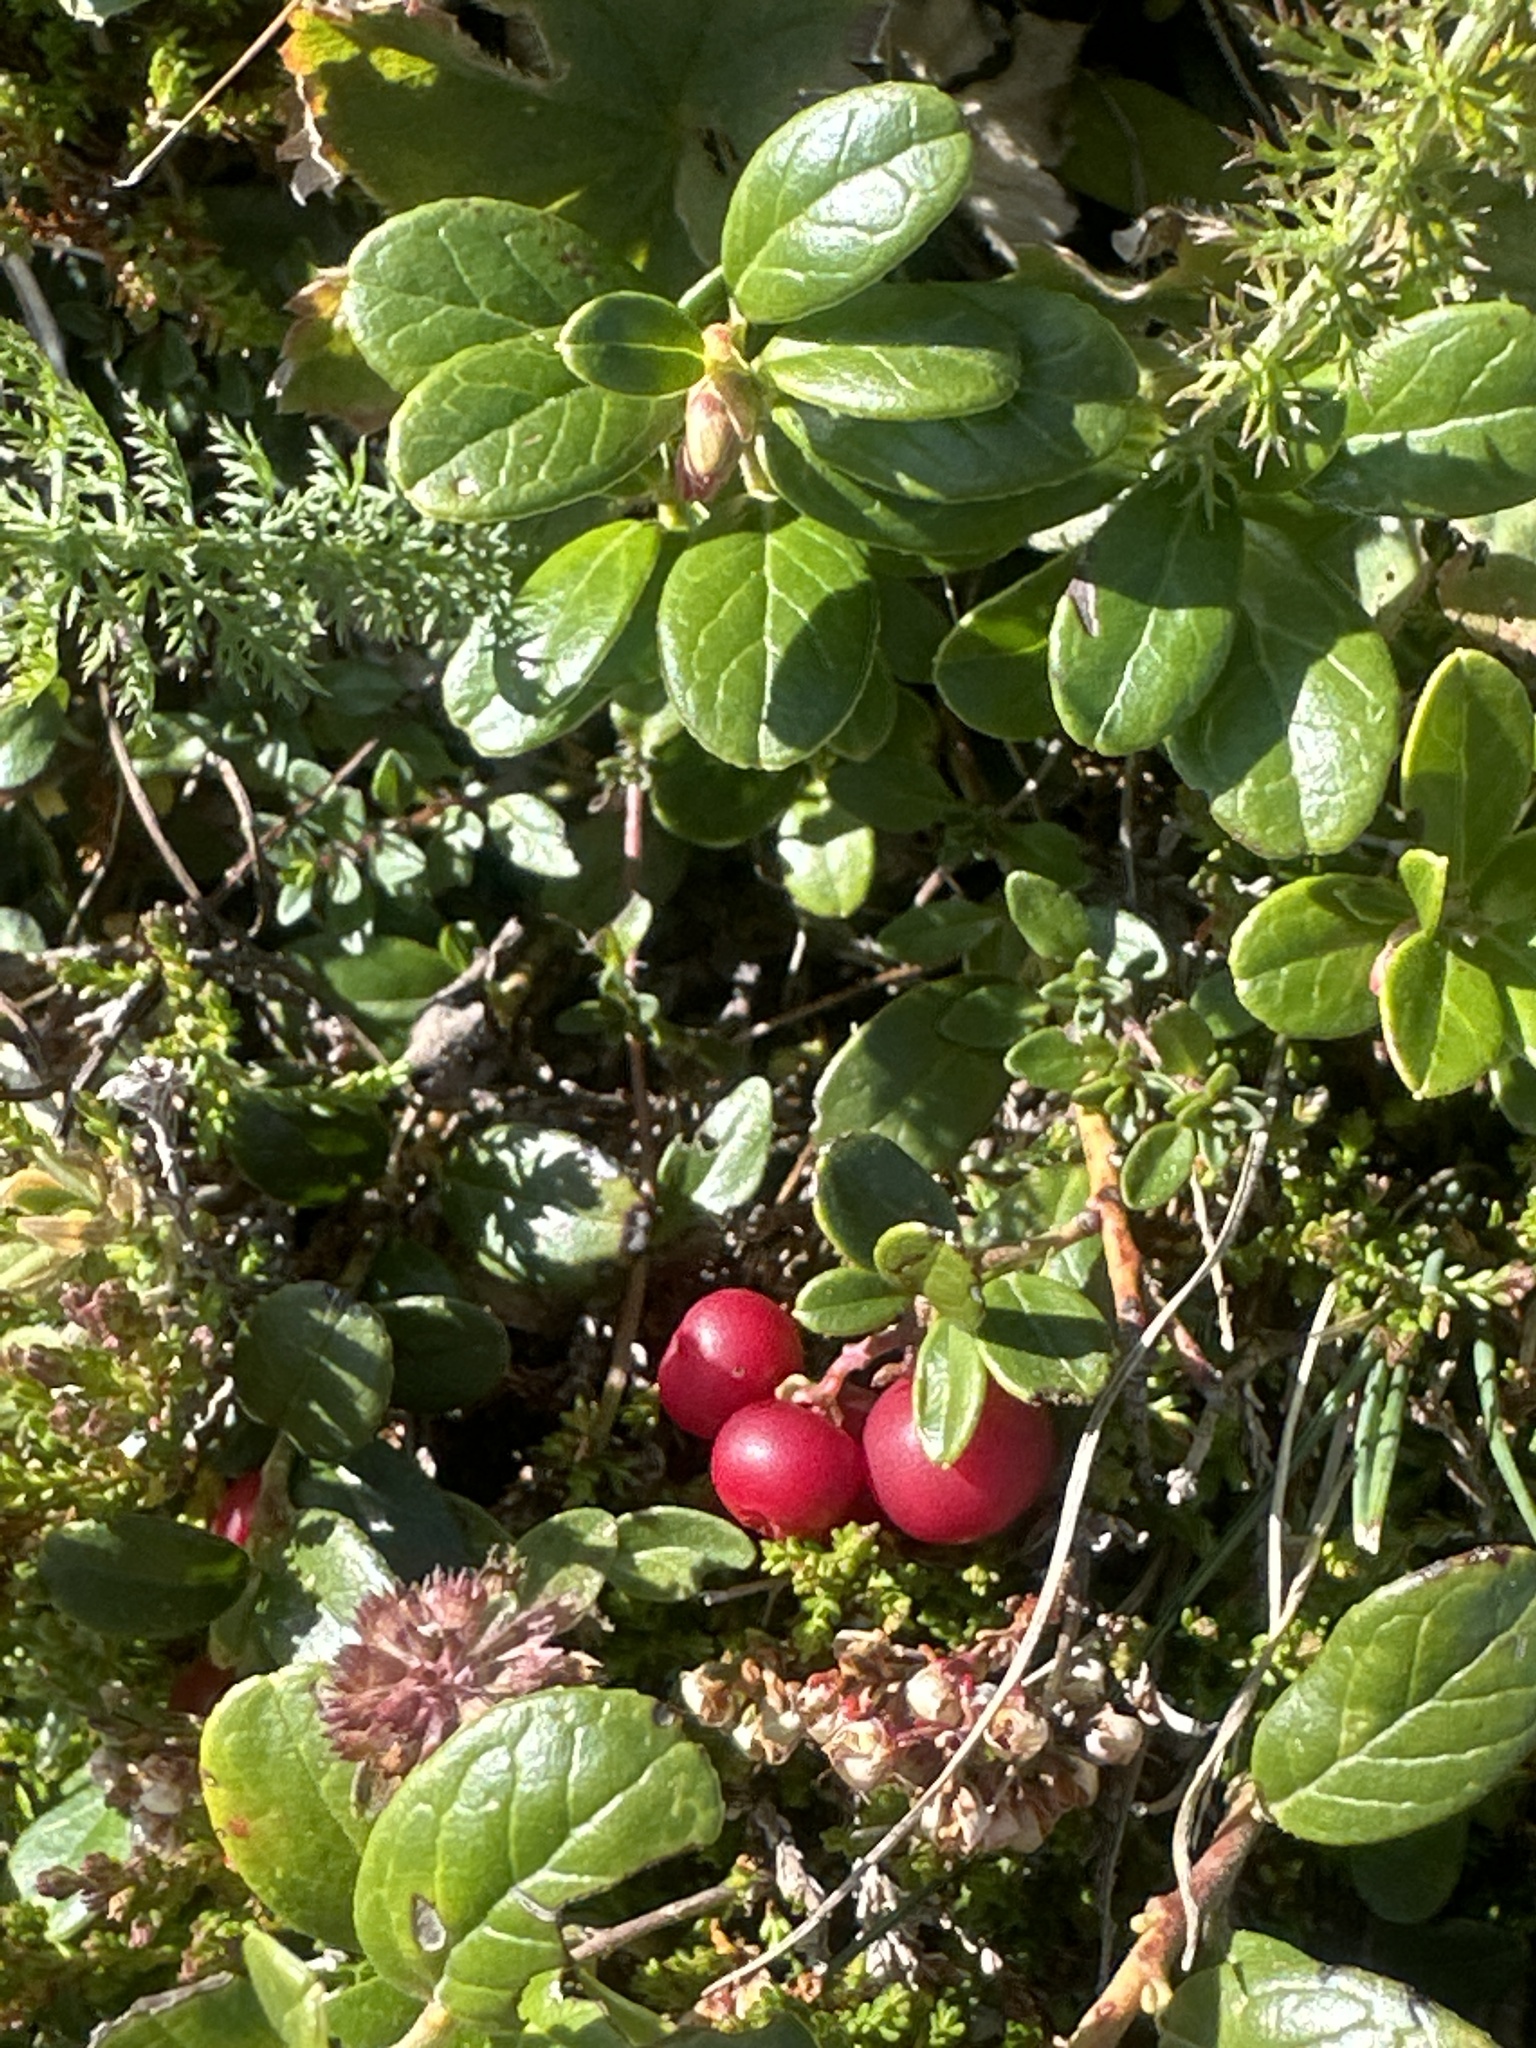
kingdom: Plantae
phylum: Tracheophyta
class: Magnoliopsida
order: Ericales
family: Ericaceae
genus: Vaccinium
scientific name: Vaccinium vitis-idaea
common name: Cowberry
